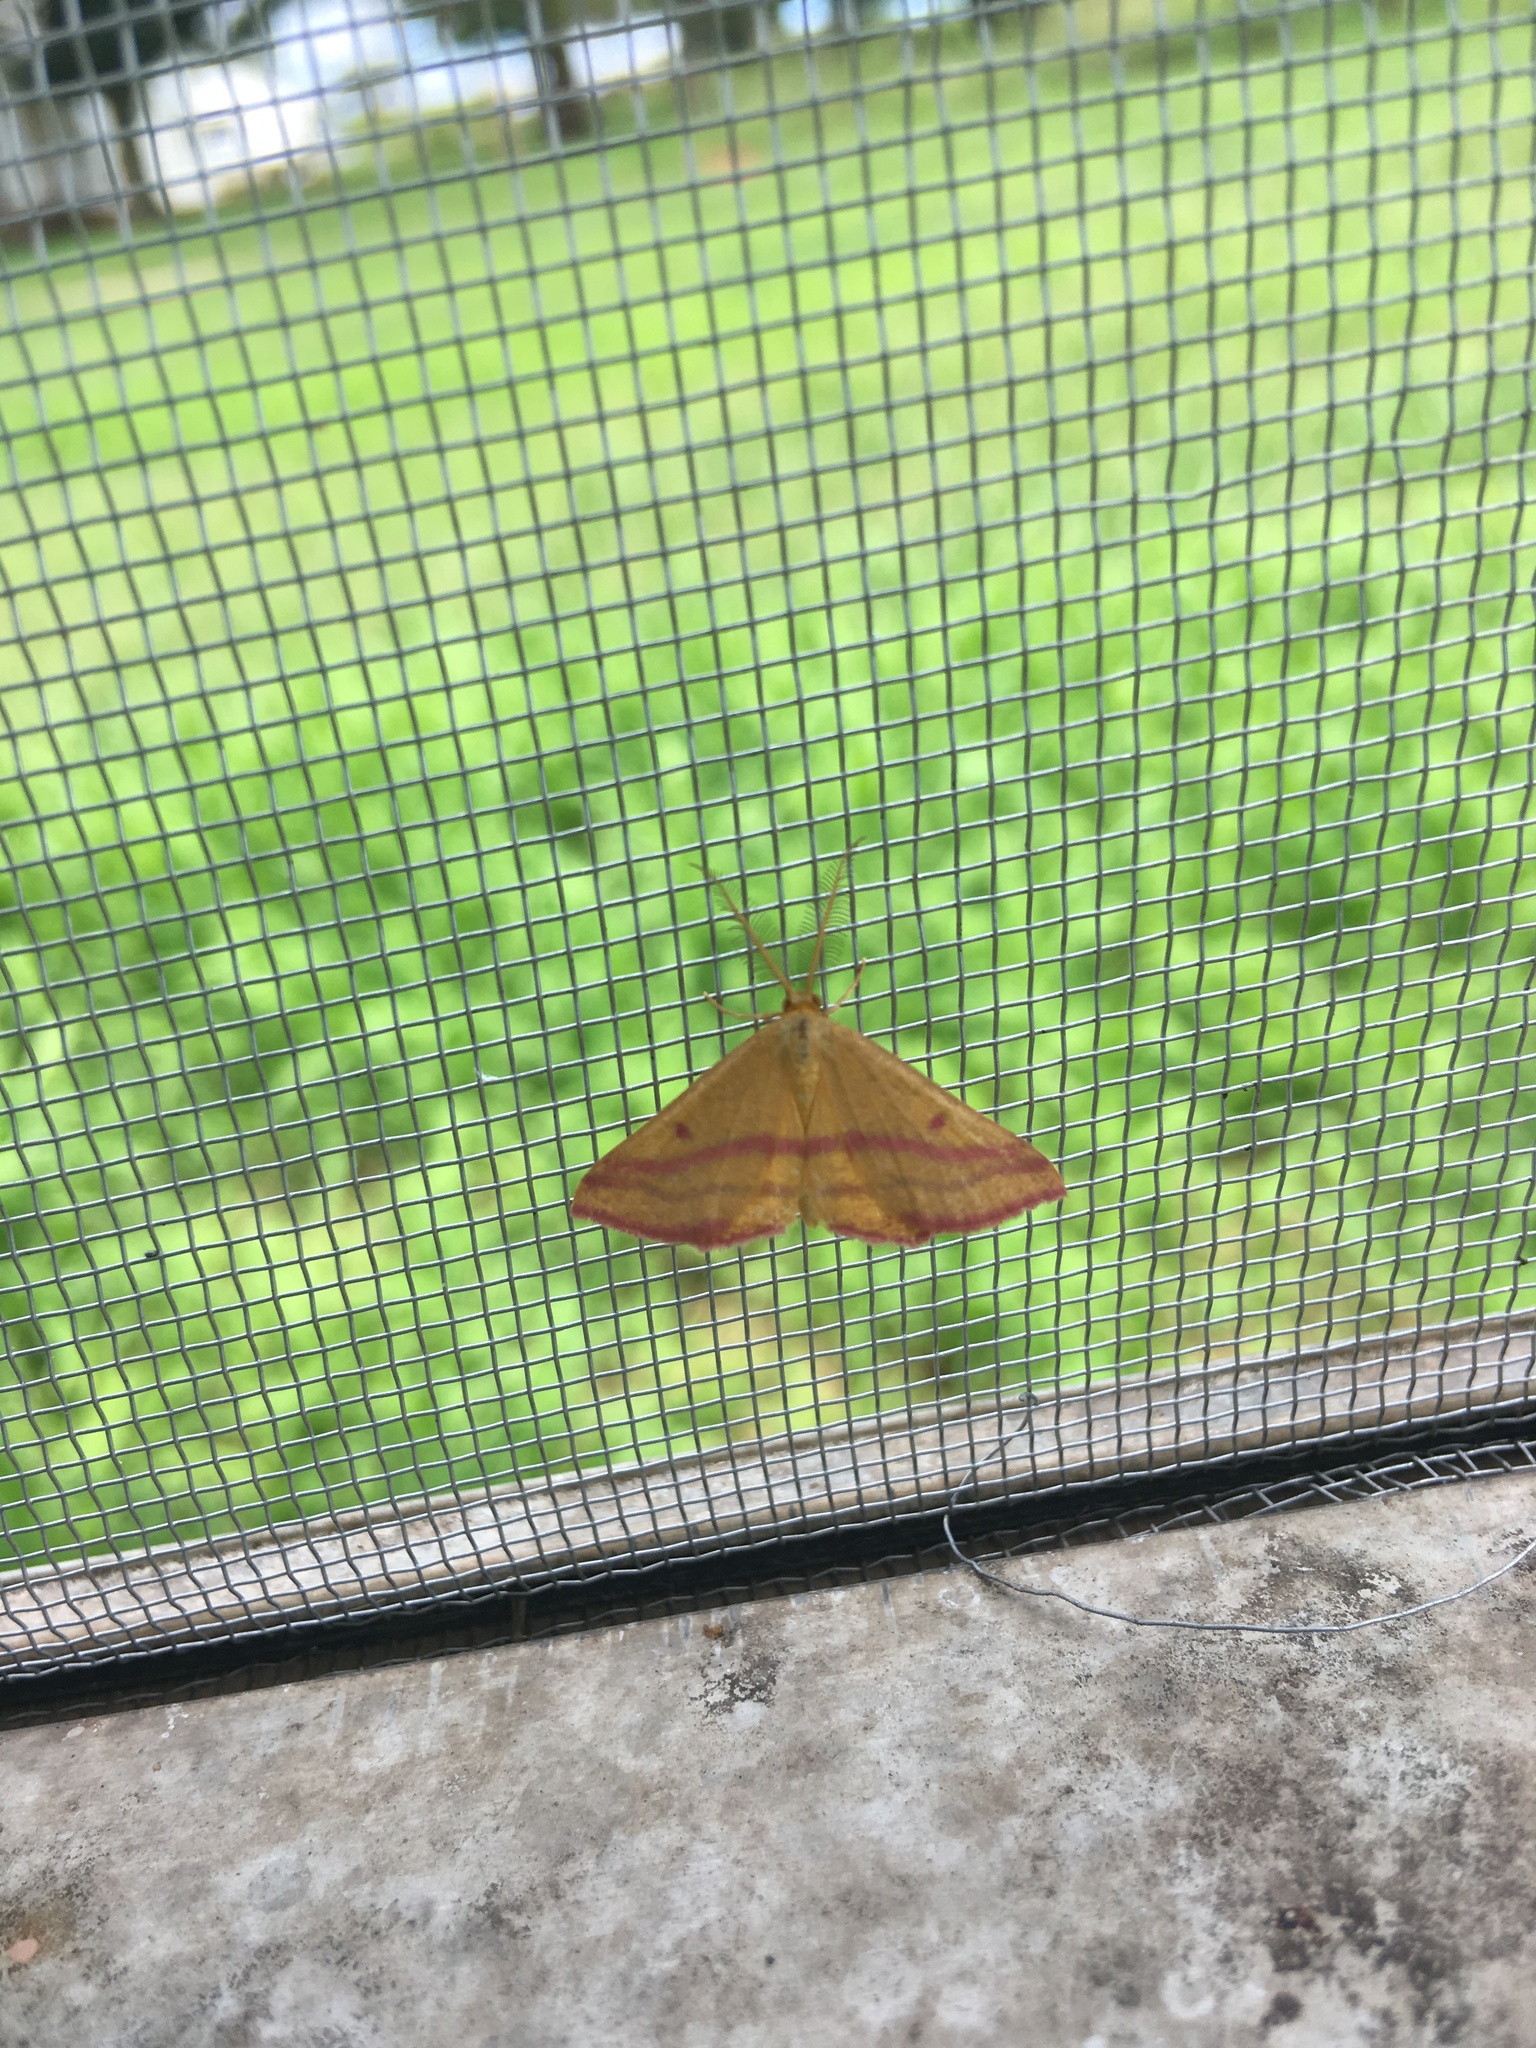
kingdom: Animalia
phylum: Arthropoda
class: Insecta
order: Lepidoptera
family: Geometridae
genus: Haematopis
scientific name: Haematopis grataria
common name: Chickweed geometer
